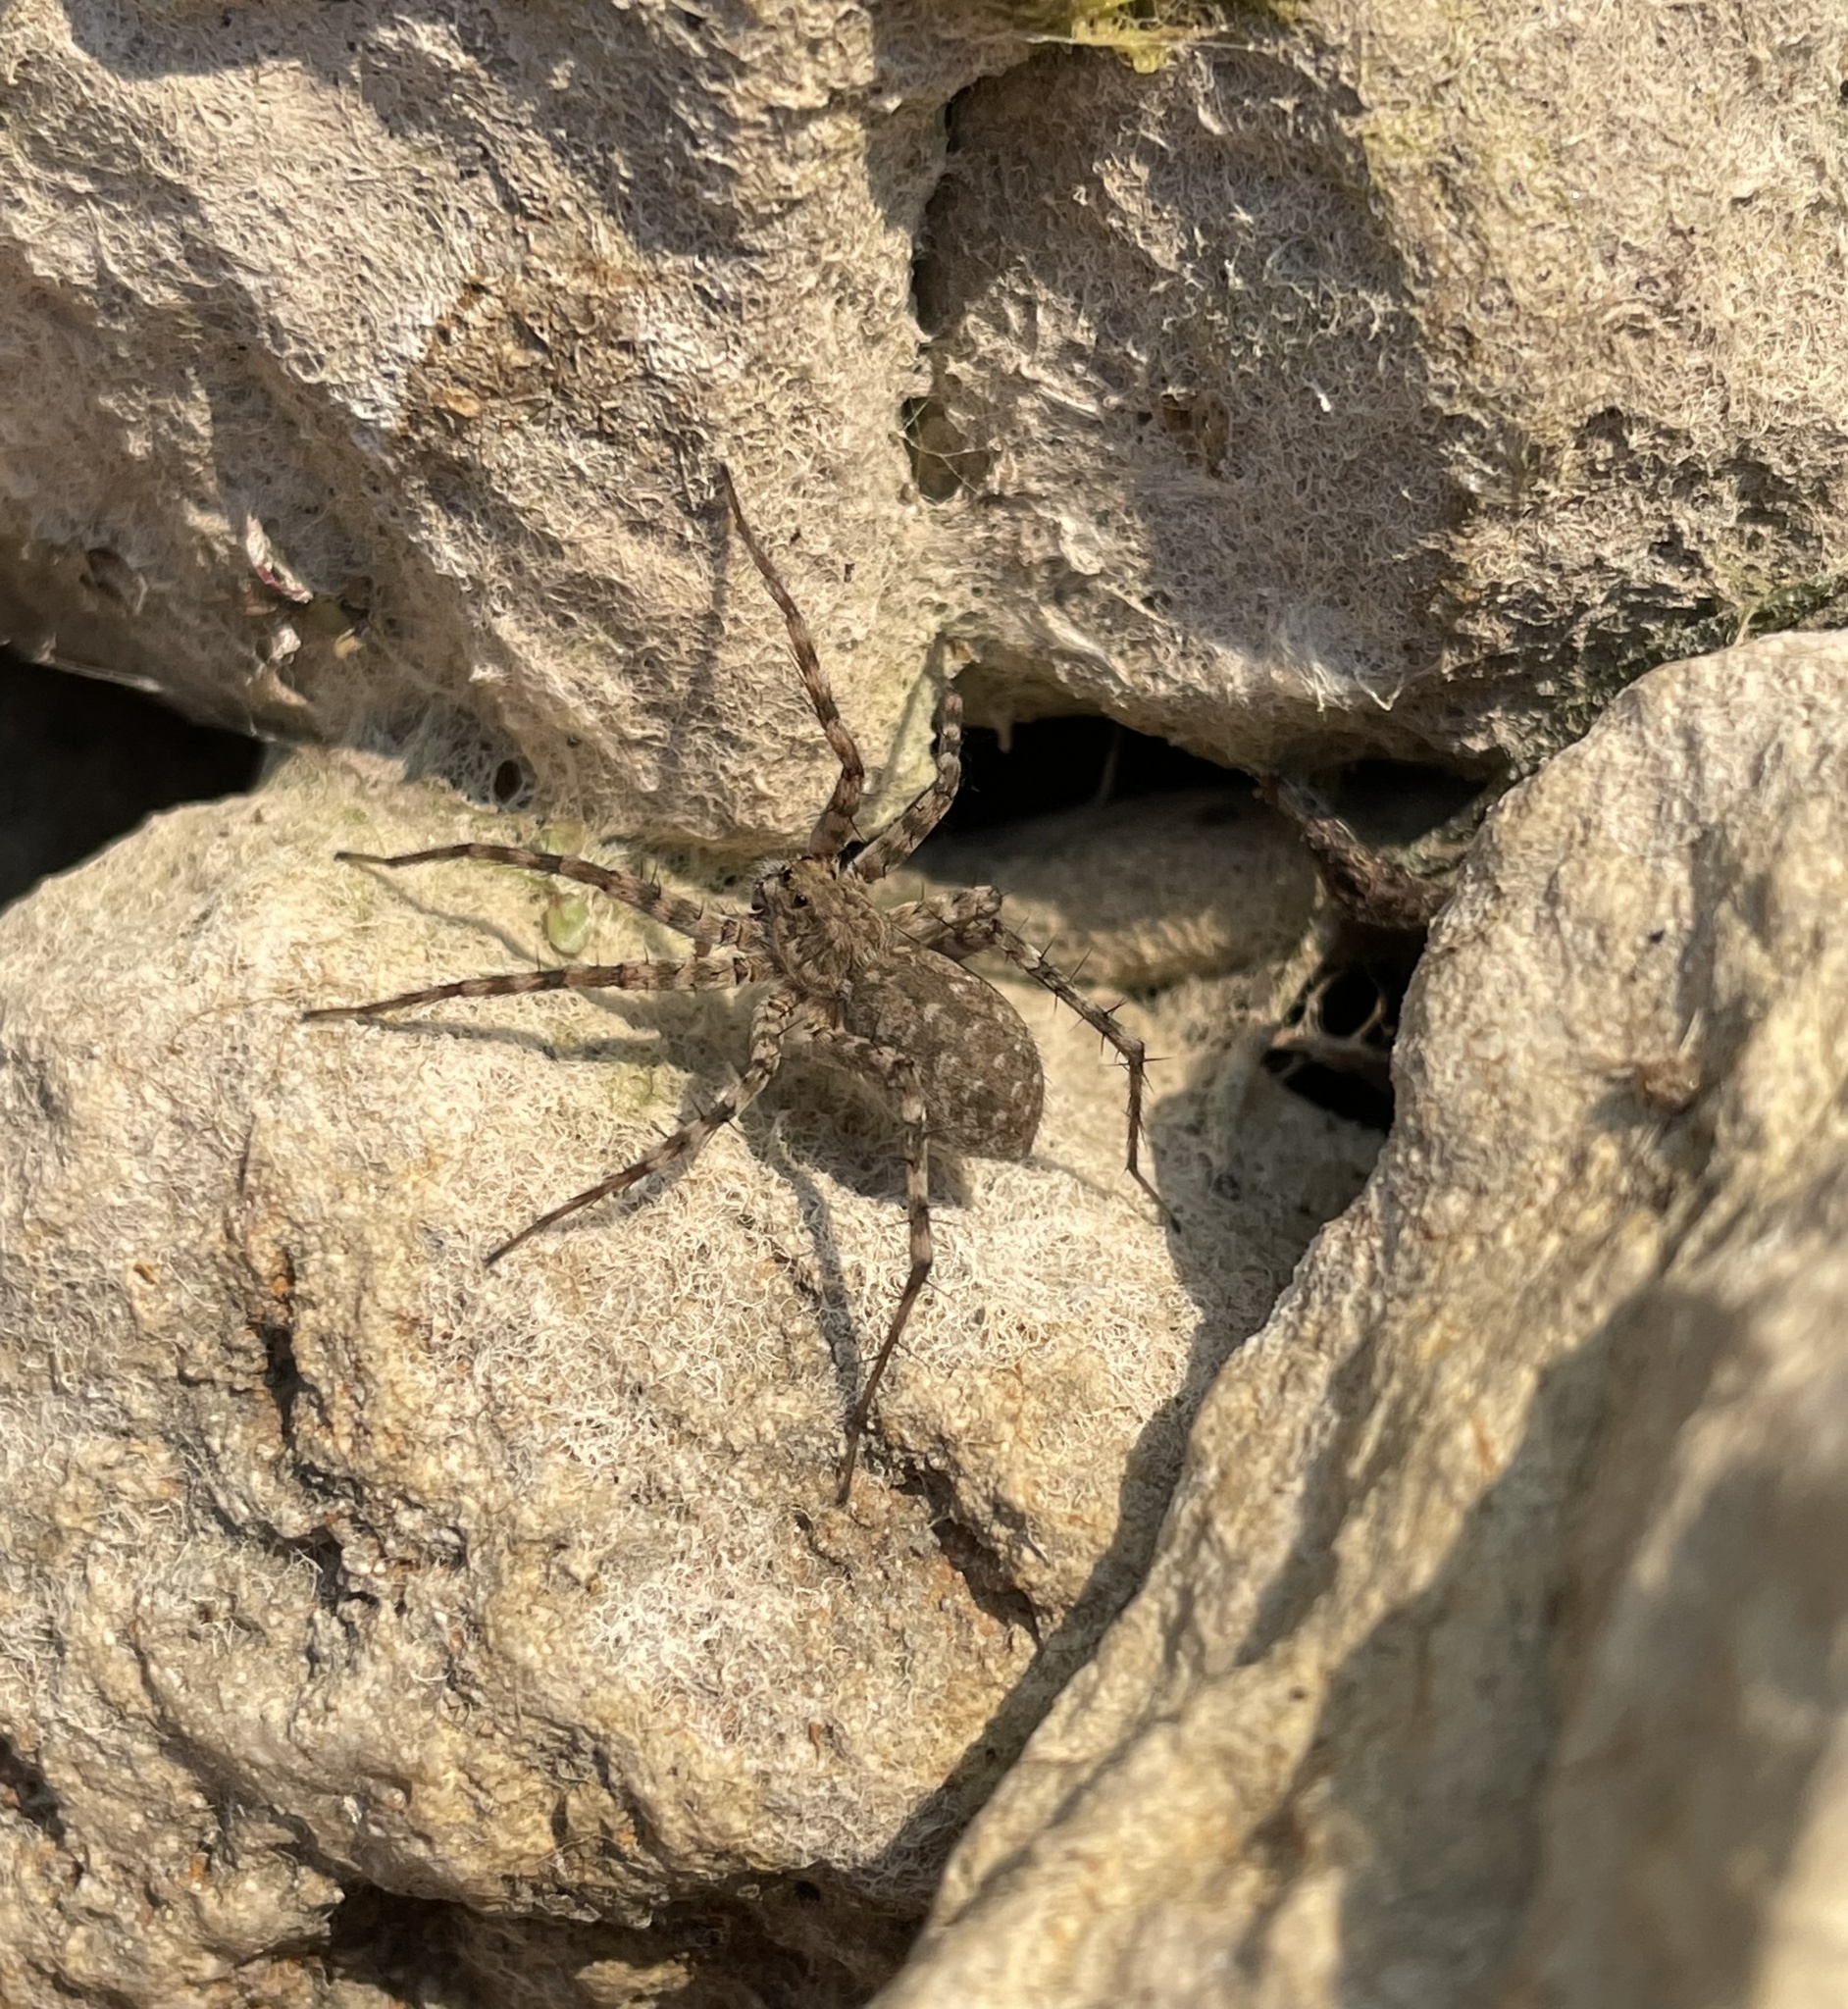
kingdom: Animalia
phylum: Arthropoda
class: Arachnida
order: Araneae
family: Lycosidae
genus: Pardosa
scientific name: Pardosa mercurialis
